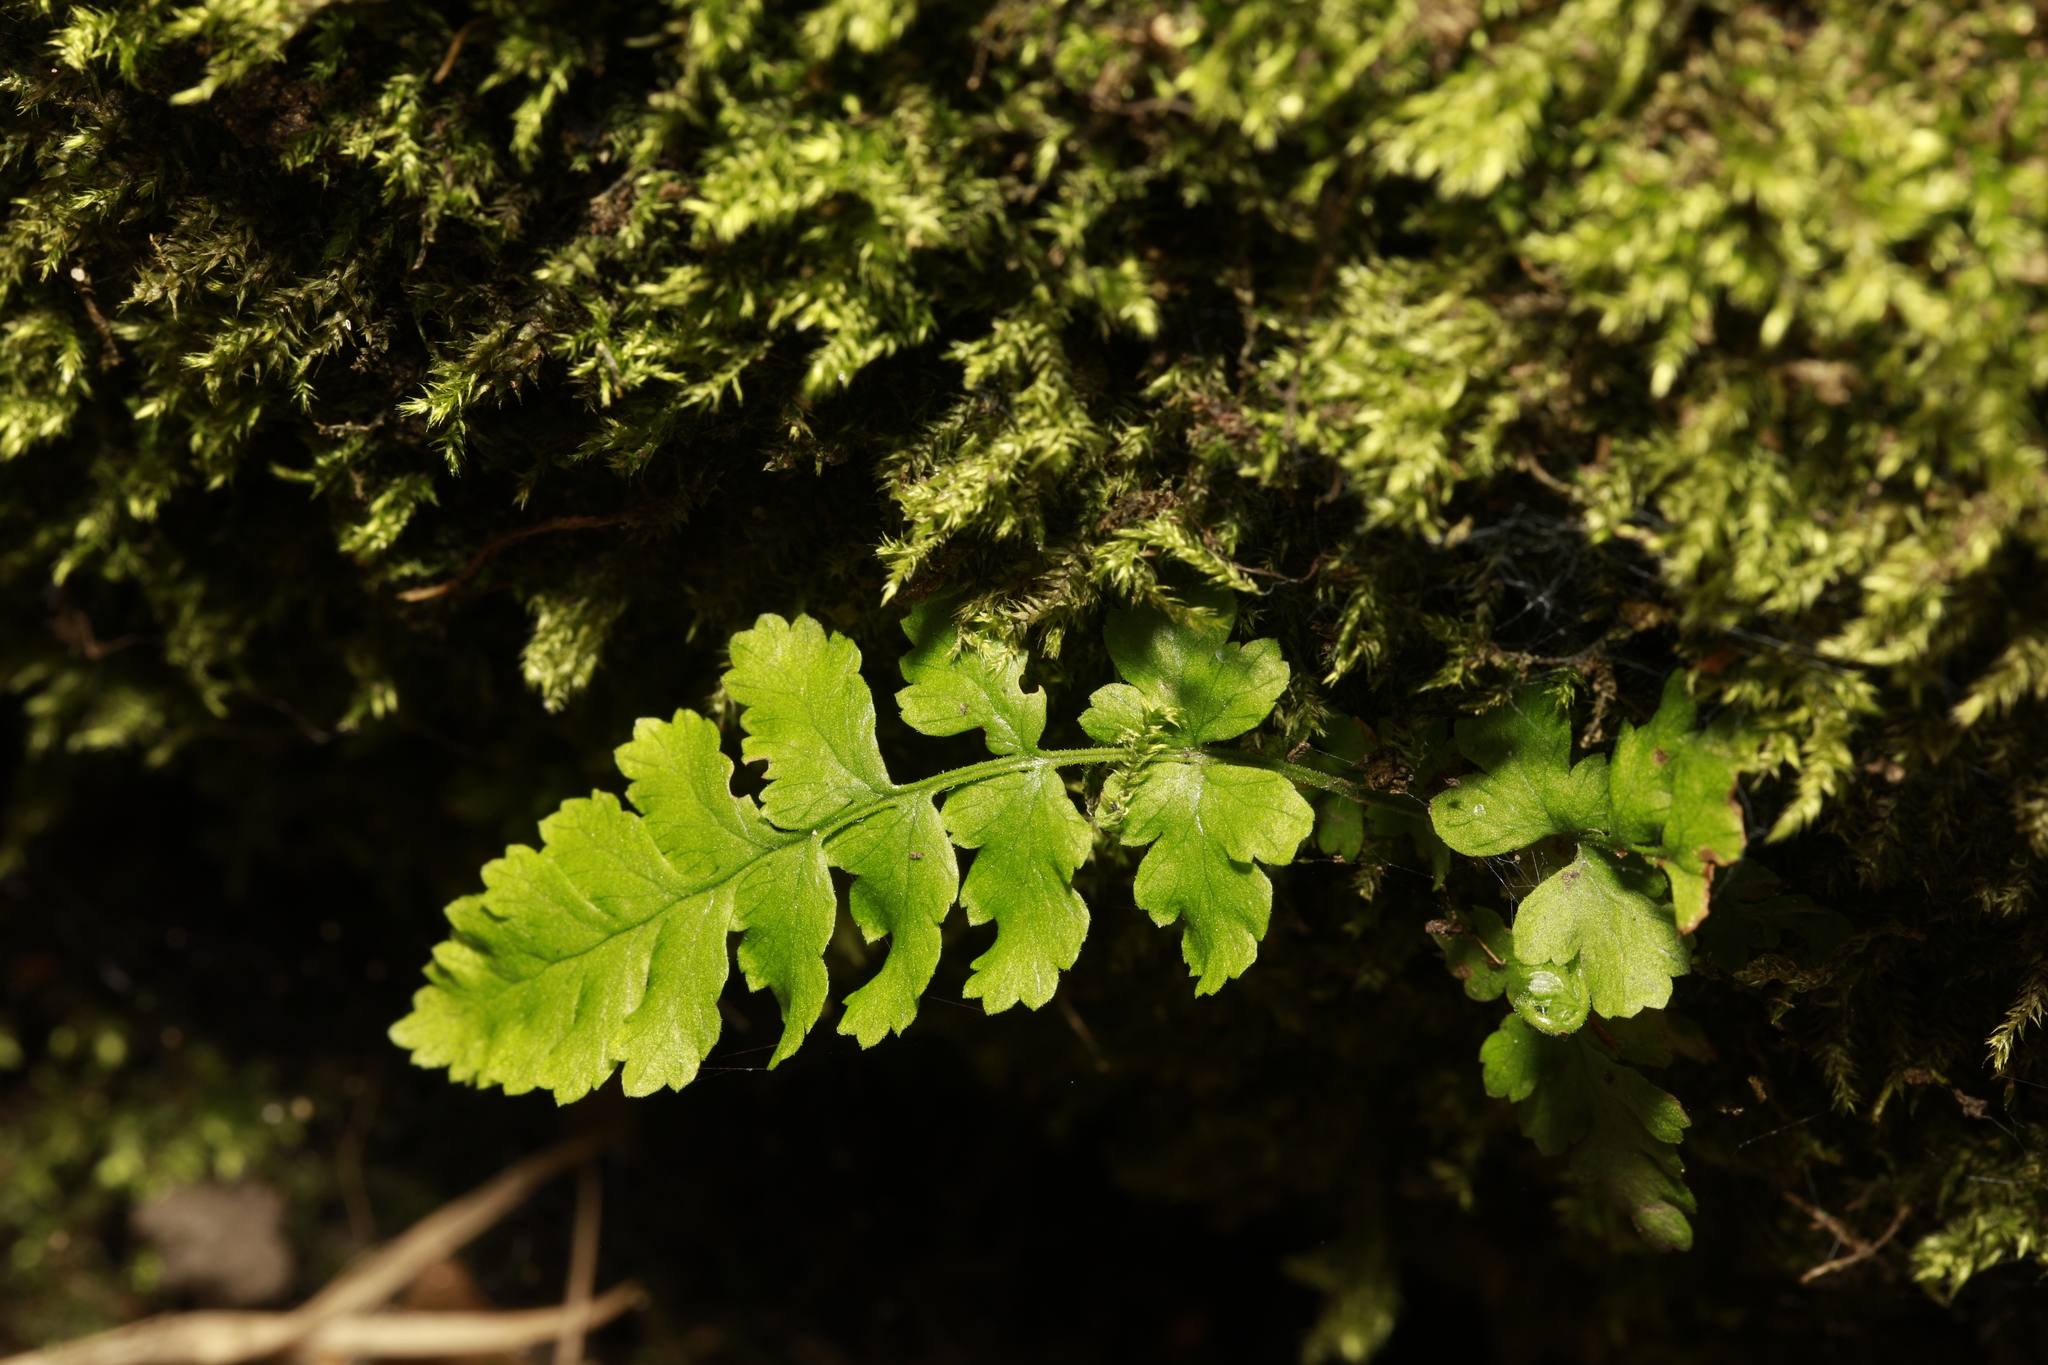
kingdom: Plantae
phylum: Tracheophyta
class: Polypodiopsida
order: Polypodiales
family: Dryopteridaceae
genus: Dryopteris
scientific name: Dryopteris
